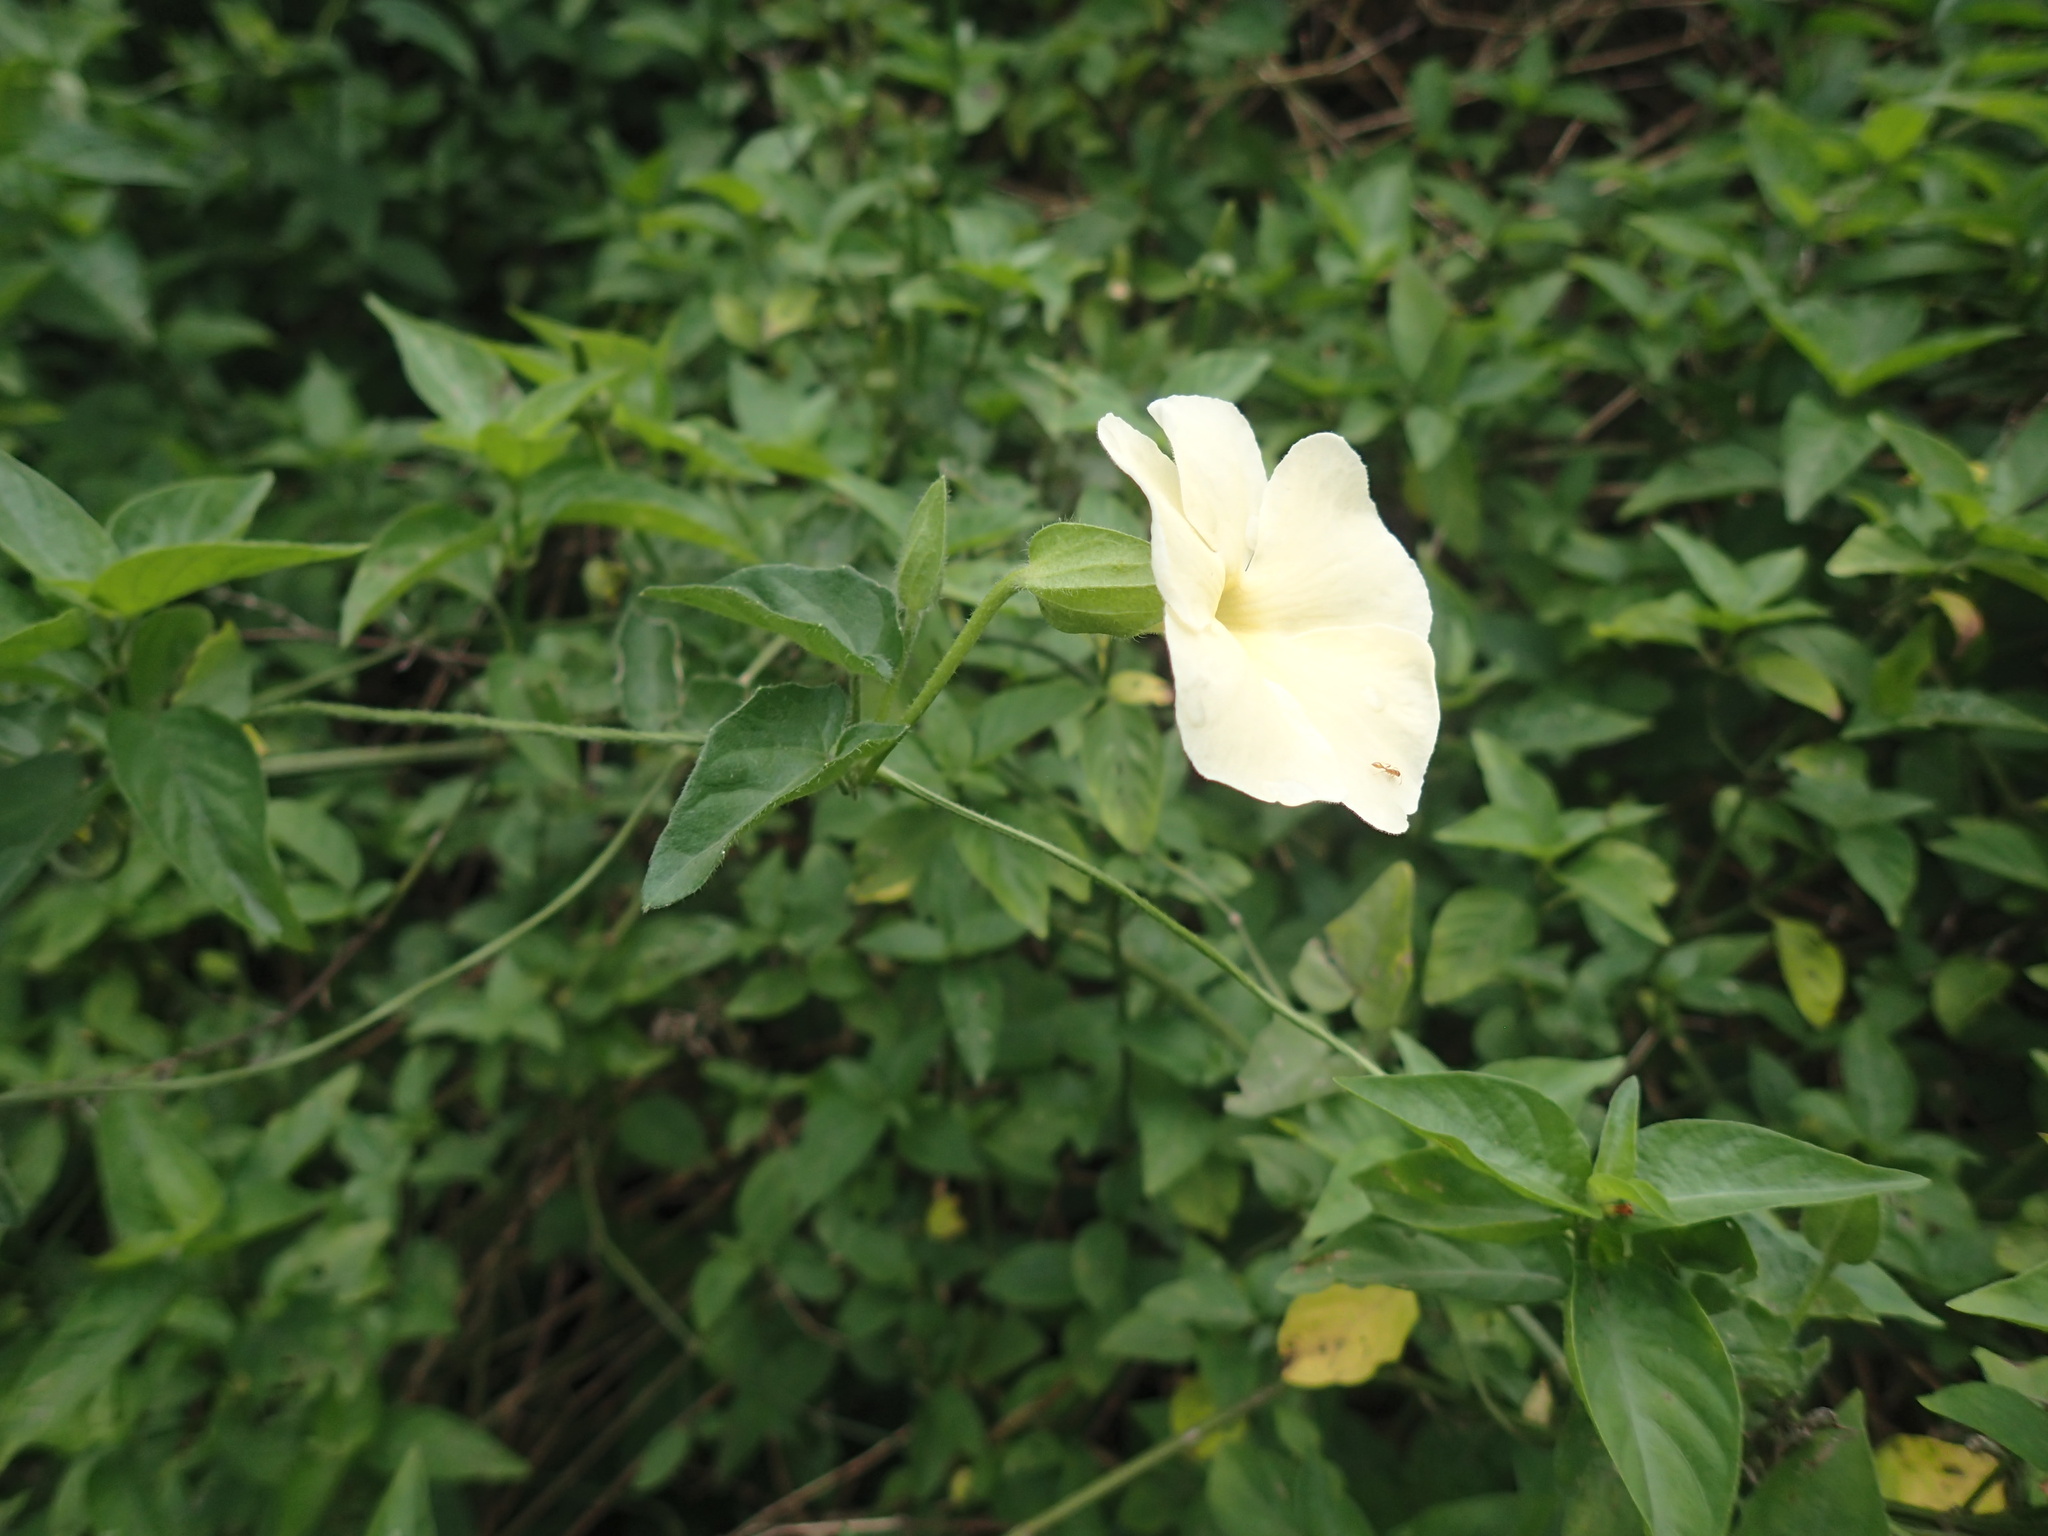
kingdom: Plantae
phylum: Tracheophyta
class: Magnoliopsida
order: Lamiales
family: Acanthaceae
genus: Thunbergia
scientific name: Thunbergia dregeana
